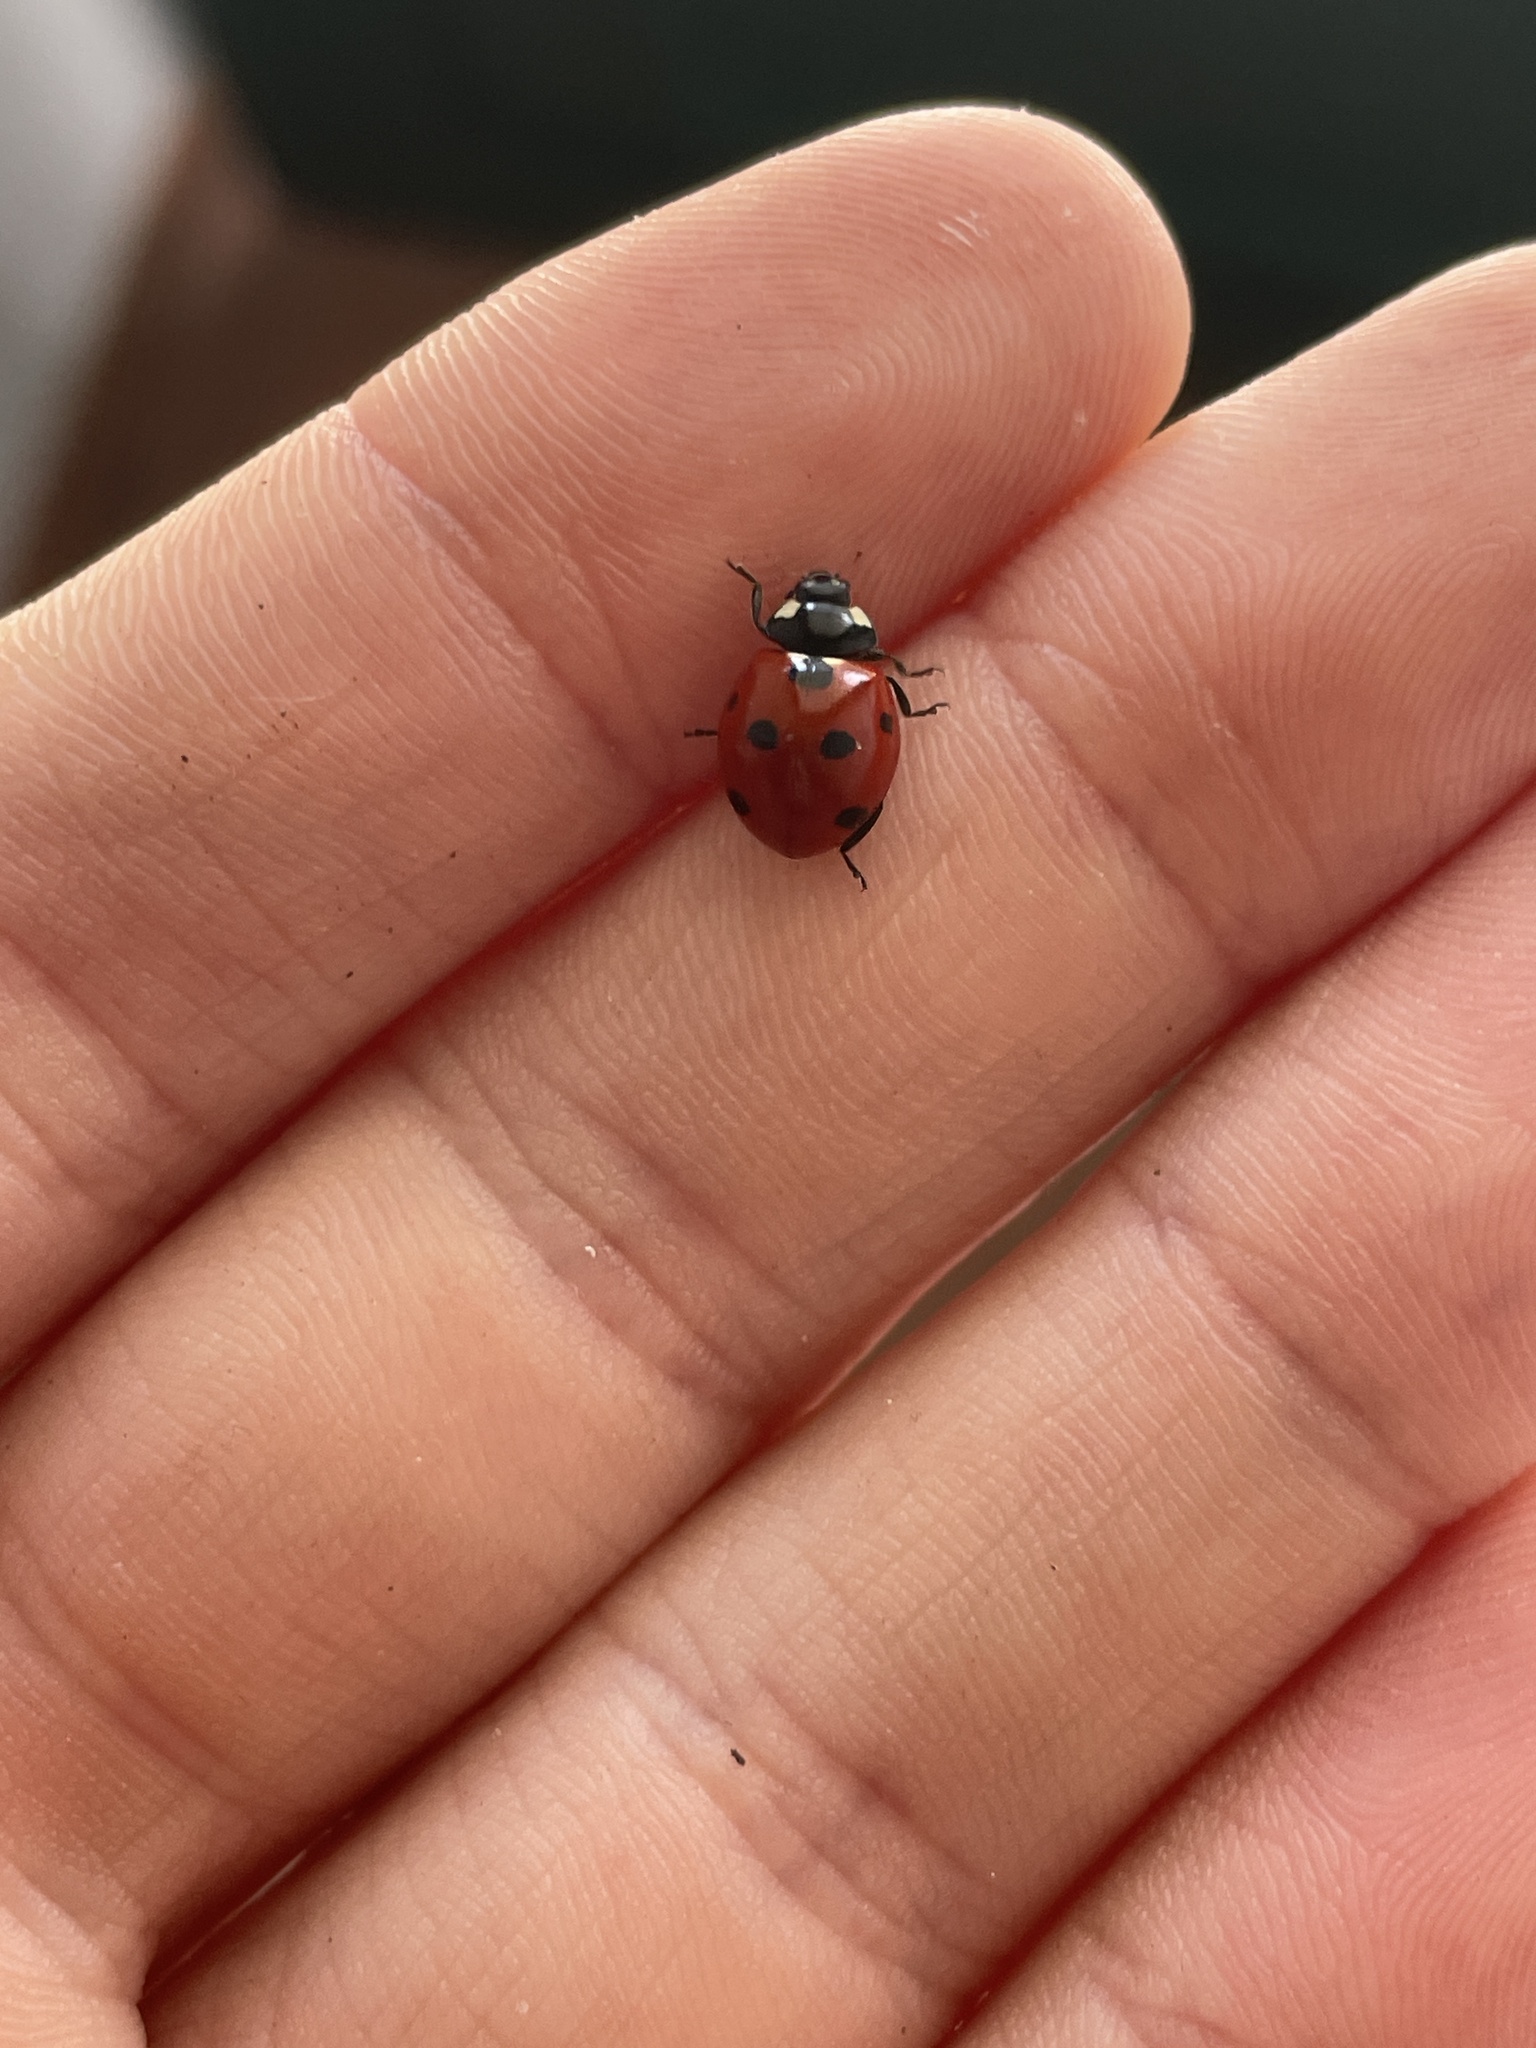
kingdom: Animalia
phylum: Arthropoda
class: Insecta
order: Coleoptera
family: Coccinellidae
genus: Coccinella
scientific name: Coccinella septempunctata
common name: Sevenspotted lady beetle
